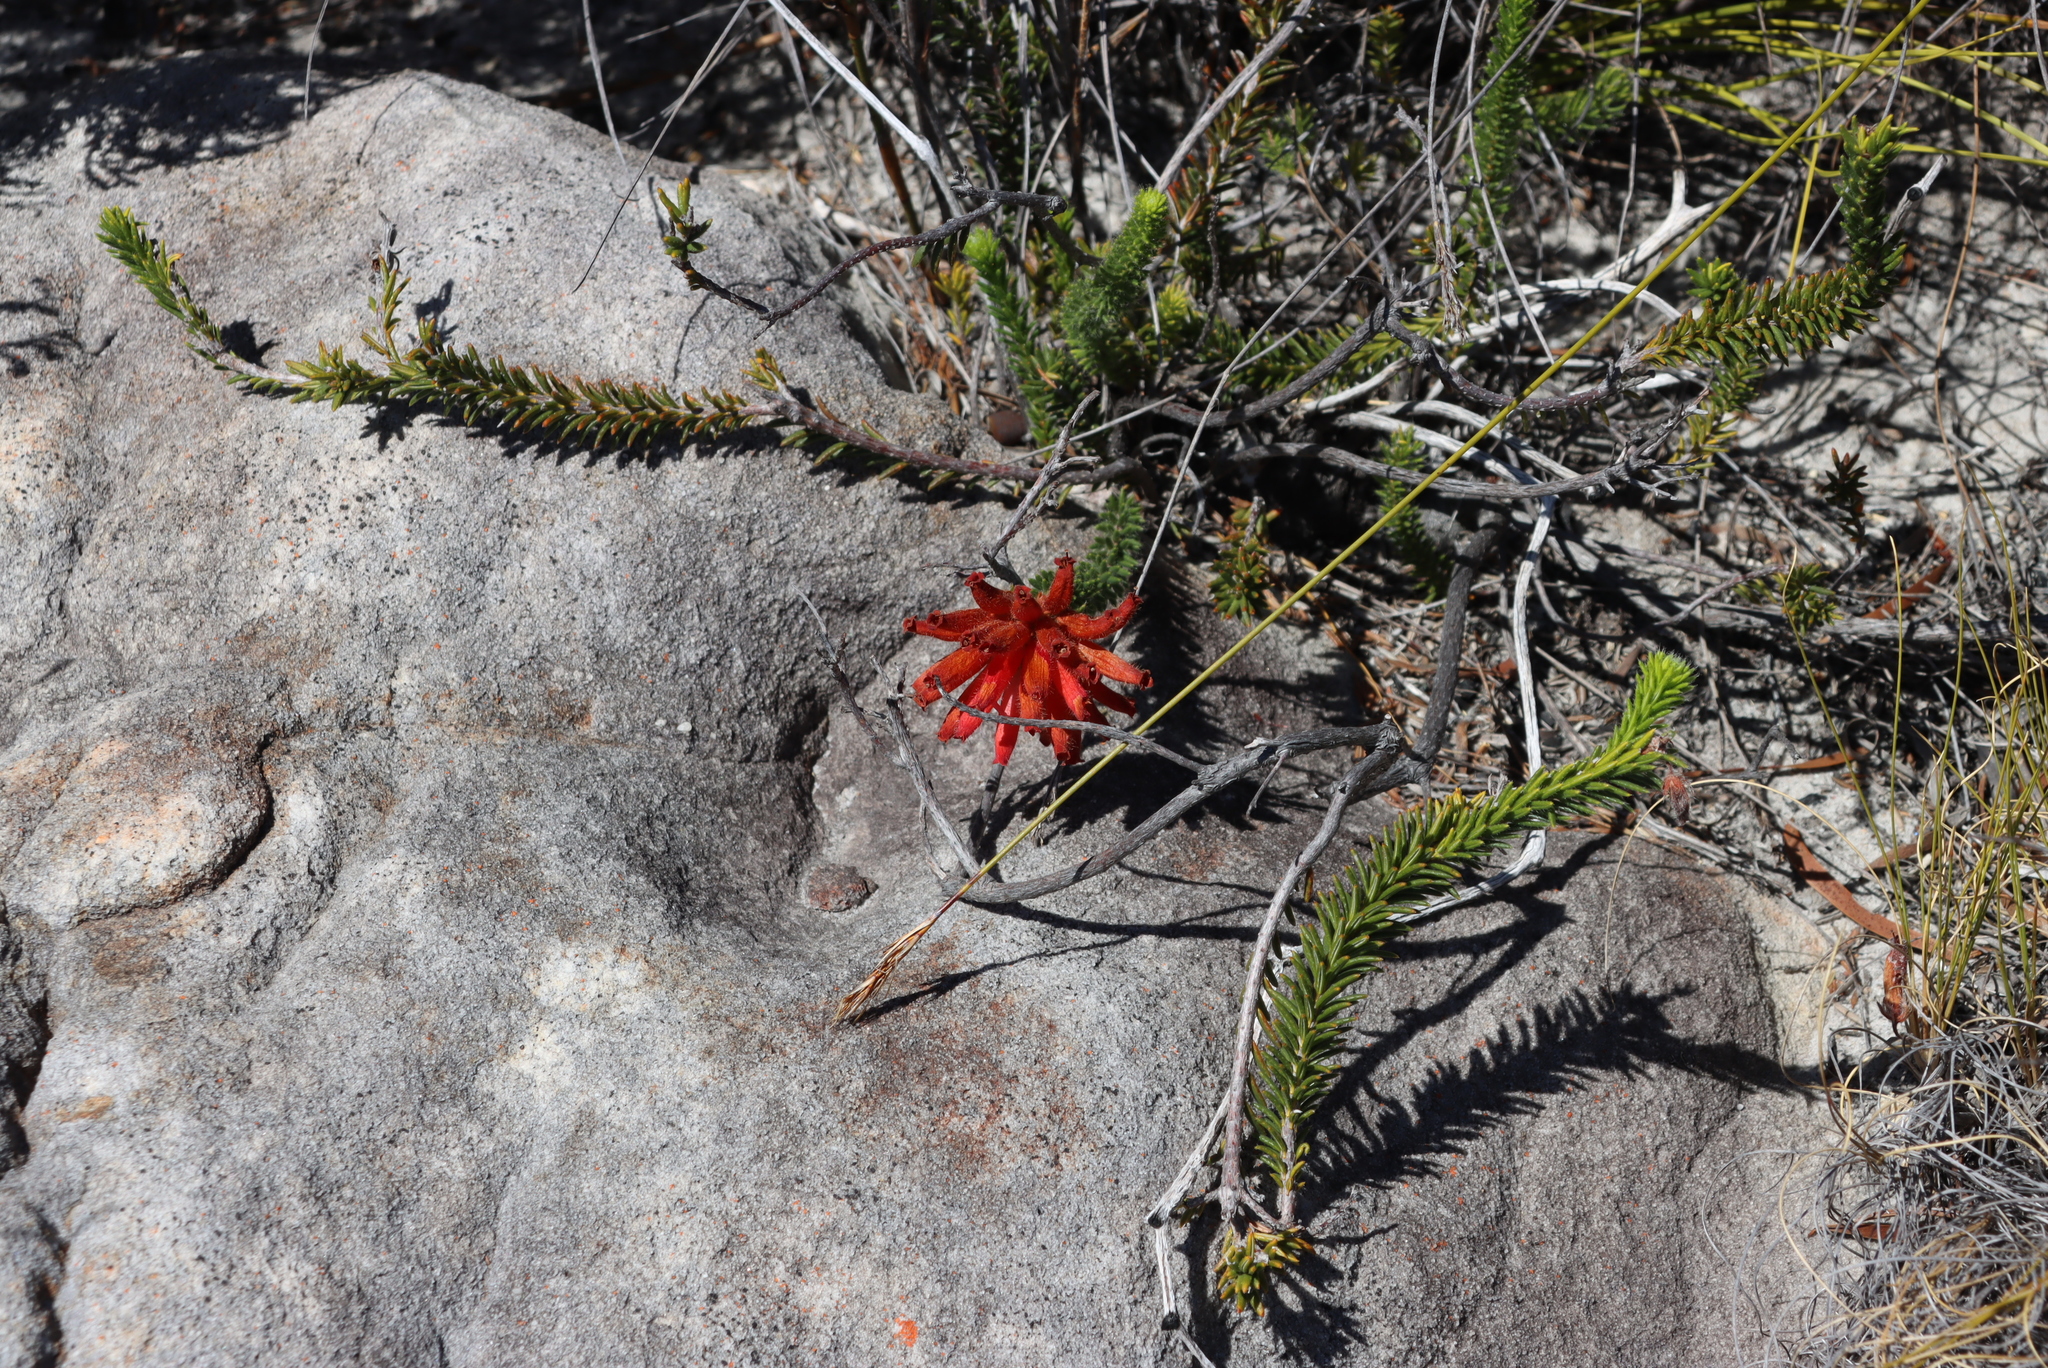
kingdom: Plantae
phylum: Tracheophyta
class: Magnoliopsida
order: Ericales
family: Ericaceae
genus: Erica
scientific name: Erica cerinthoides
